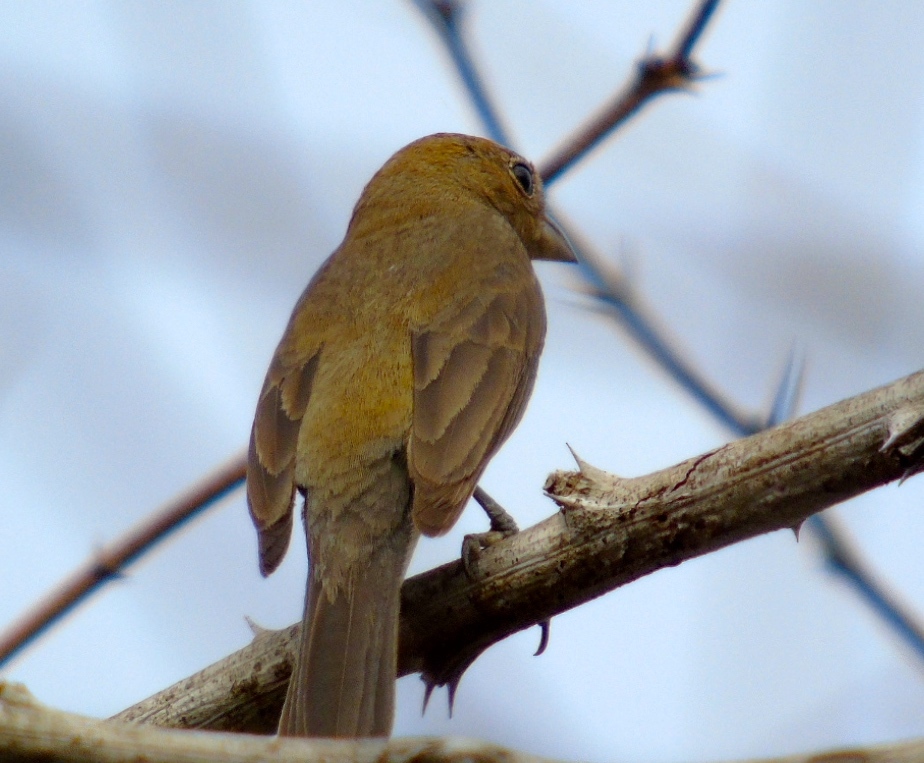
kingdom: Animalia
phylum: Chordata
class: Aves
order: Passeriformes
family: Cardinalidae
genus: Piranga
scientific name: Piranga
